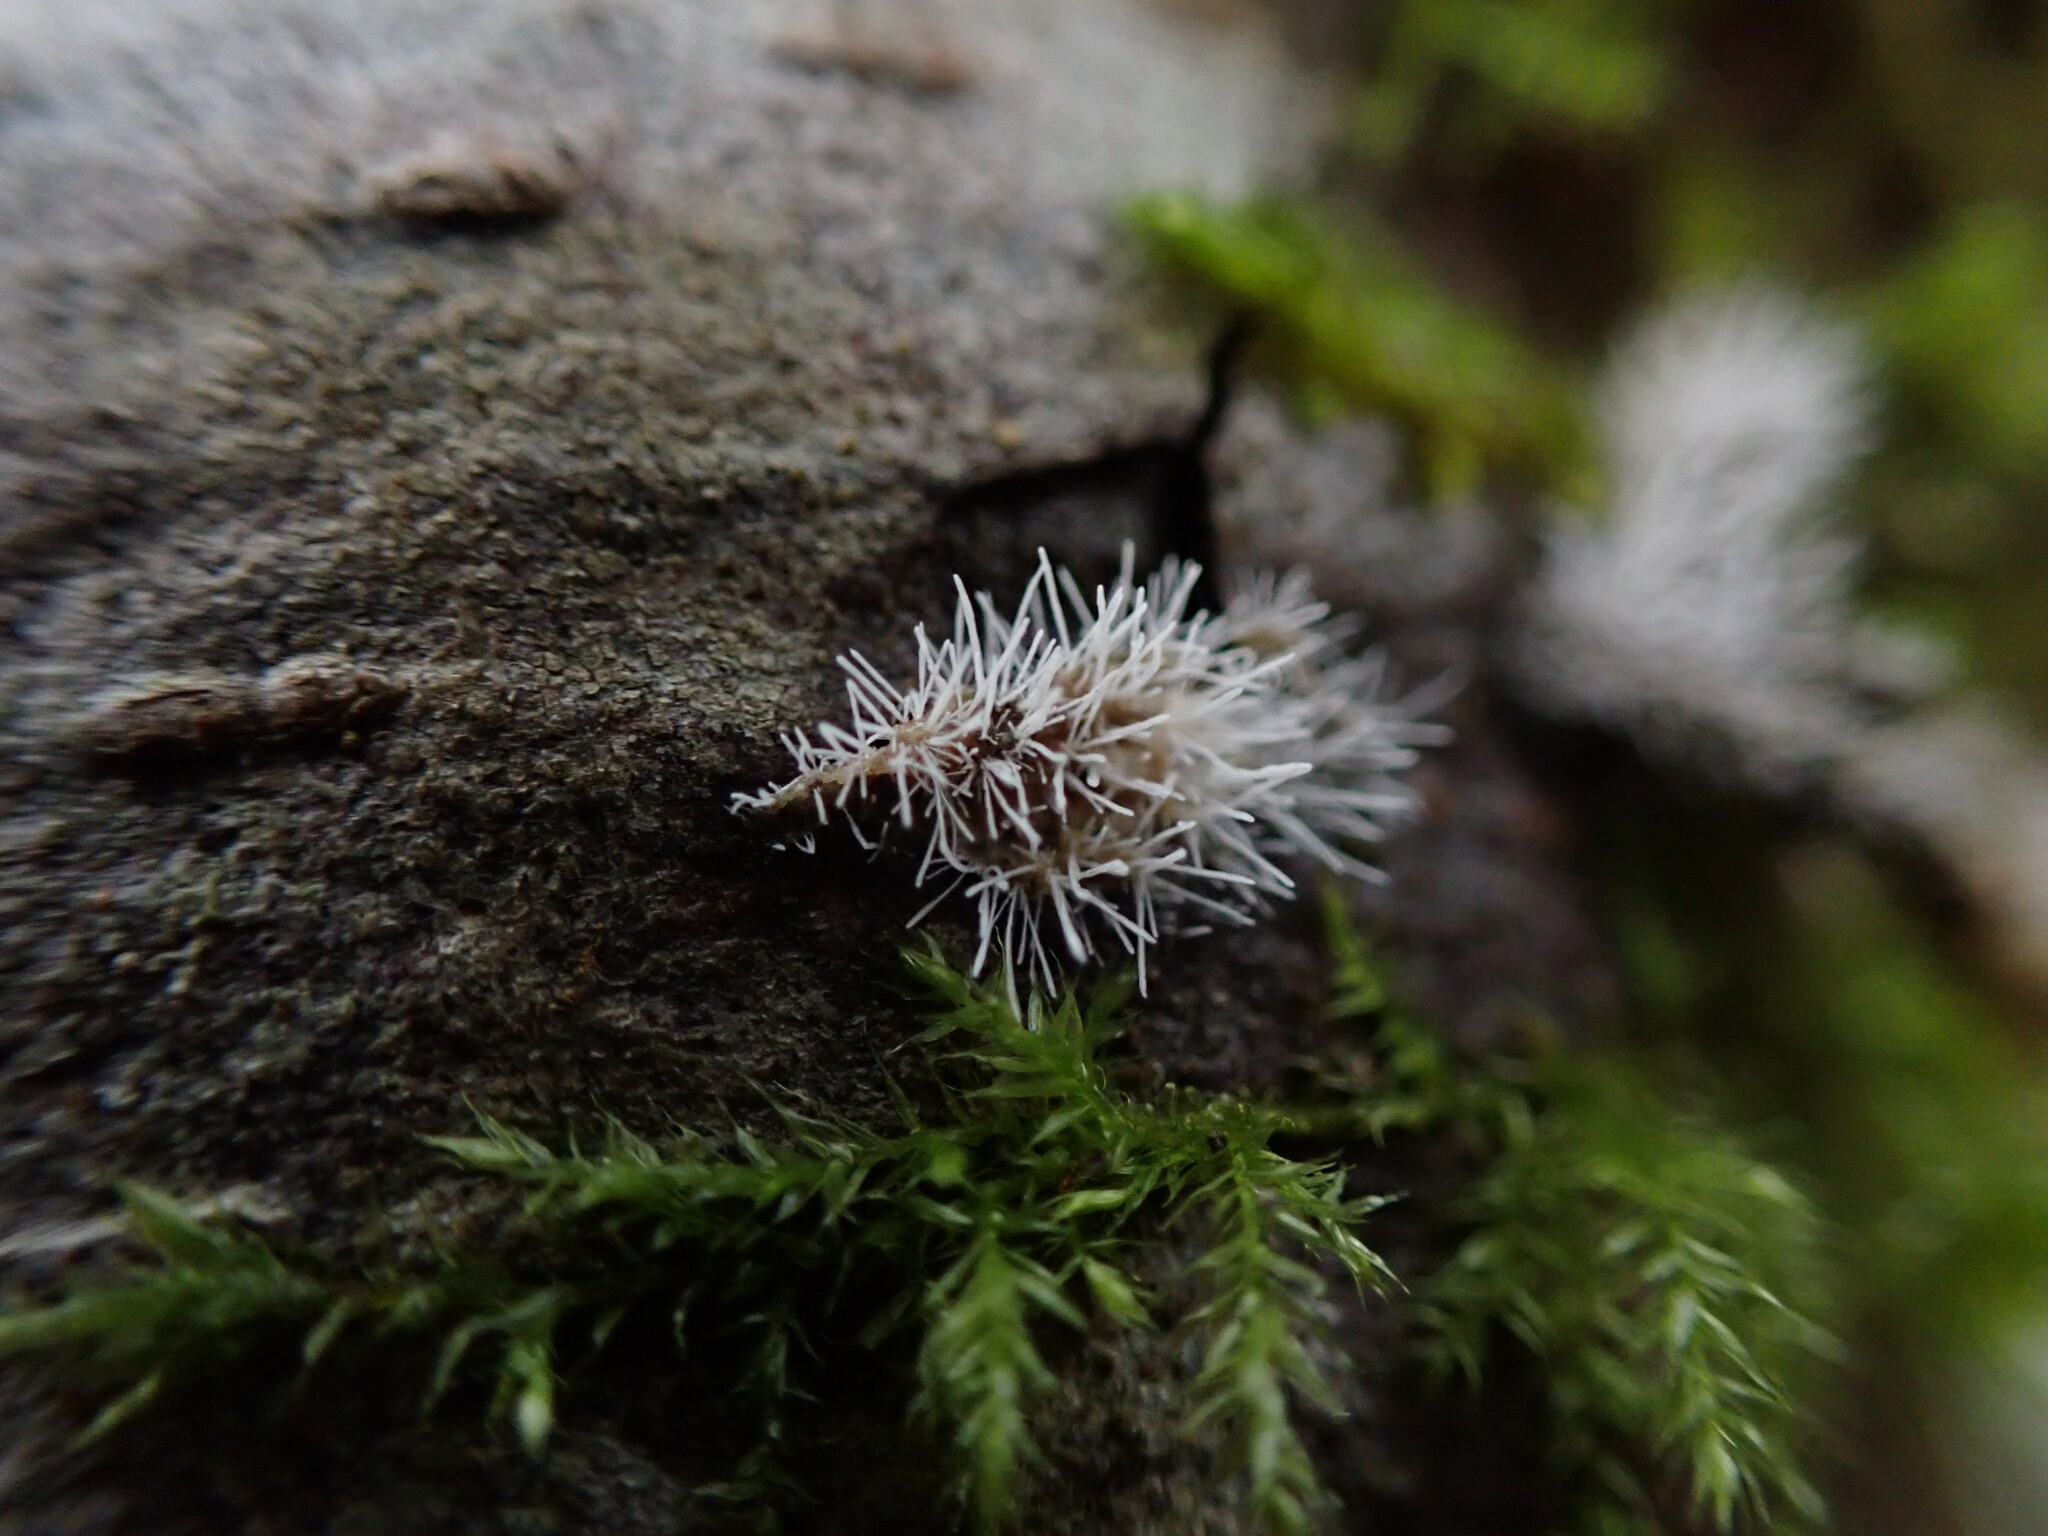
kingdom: Fungi
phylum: Ascomycota
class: Sordariomycetes
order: Hypocreales
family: Tilachlidiaceae
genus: Tilachlidium
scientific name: Tilachlidium brachiatum
